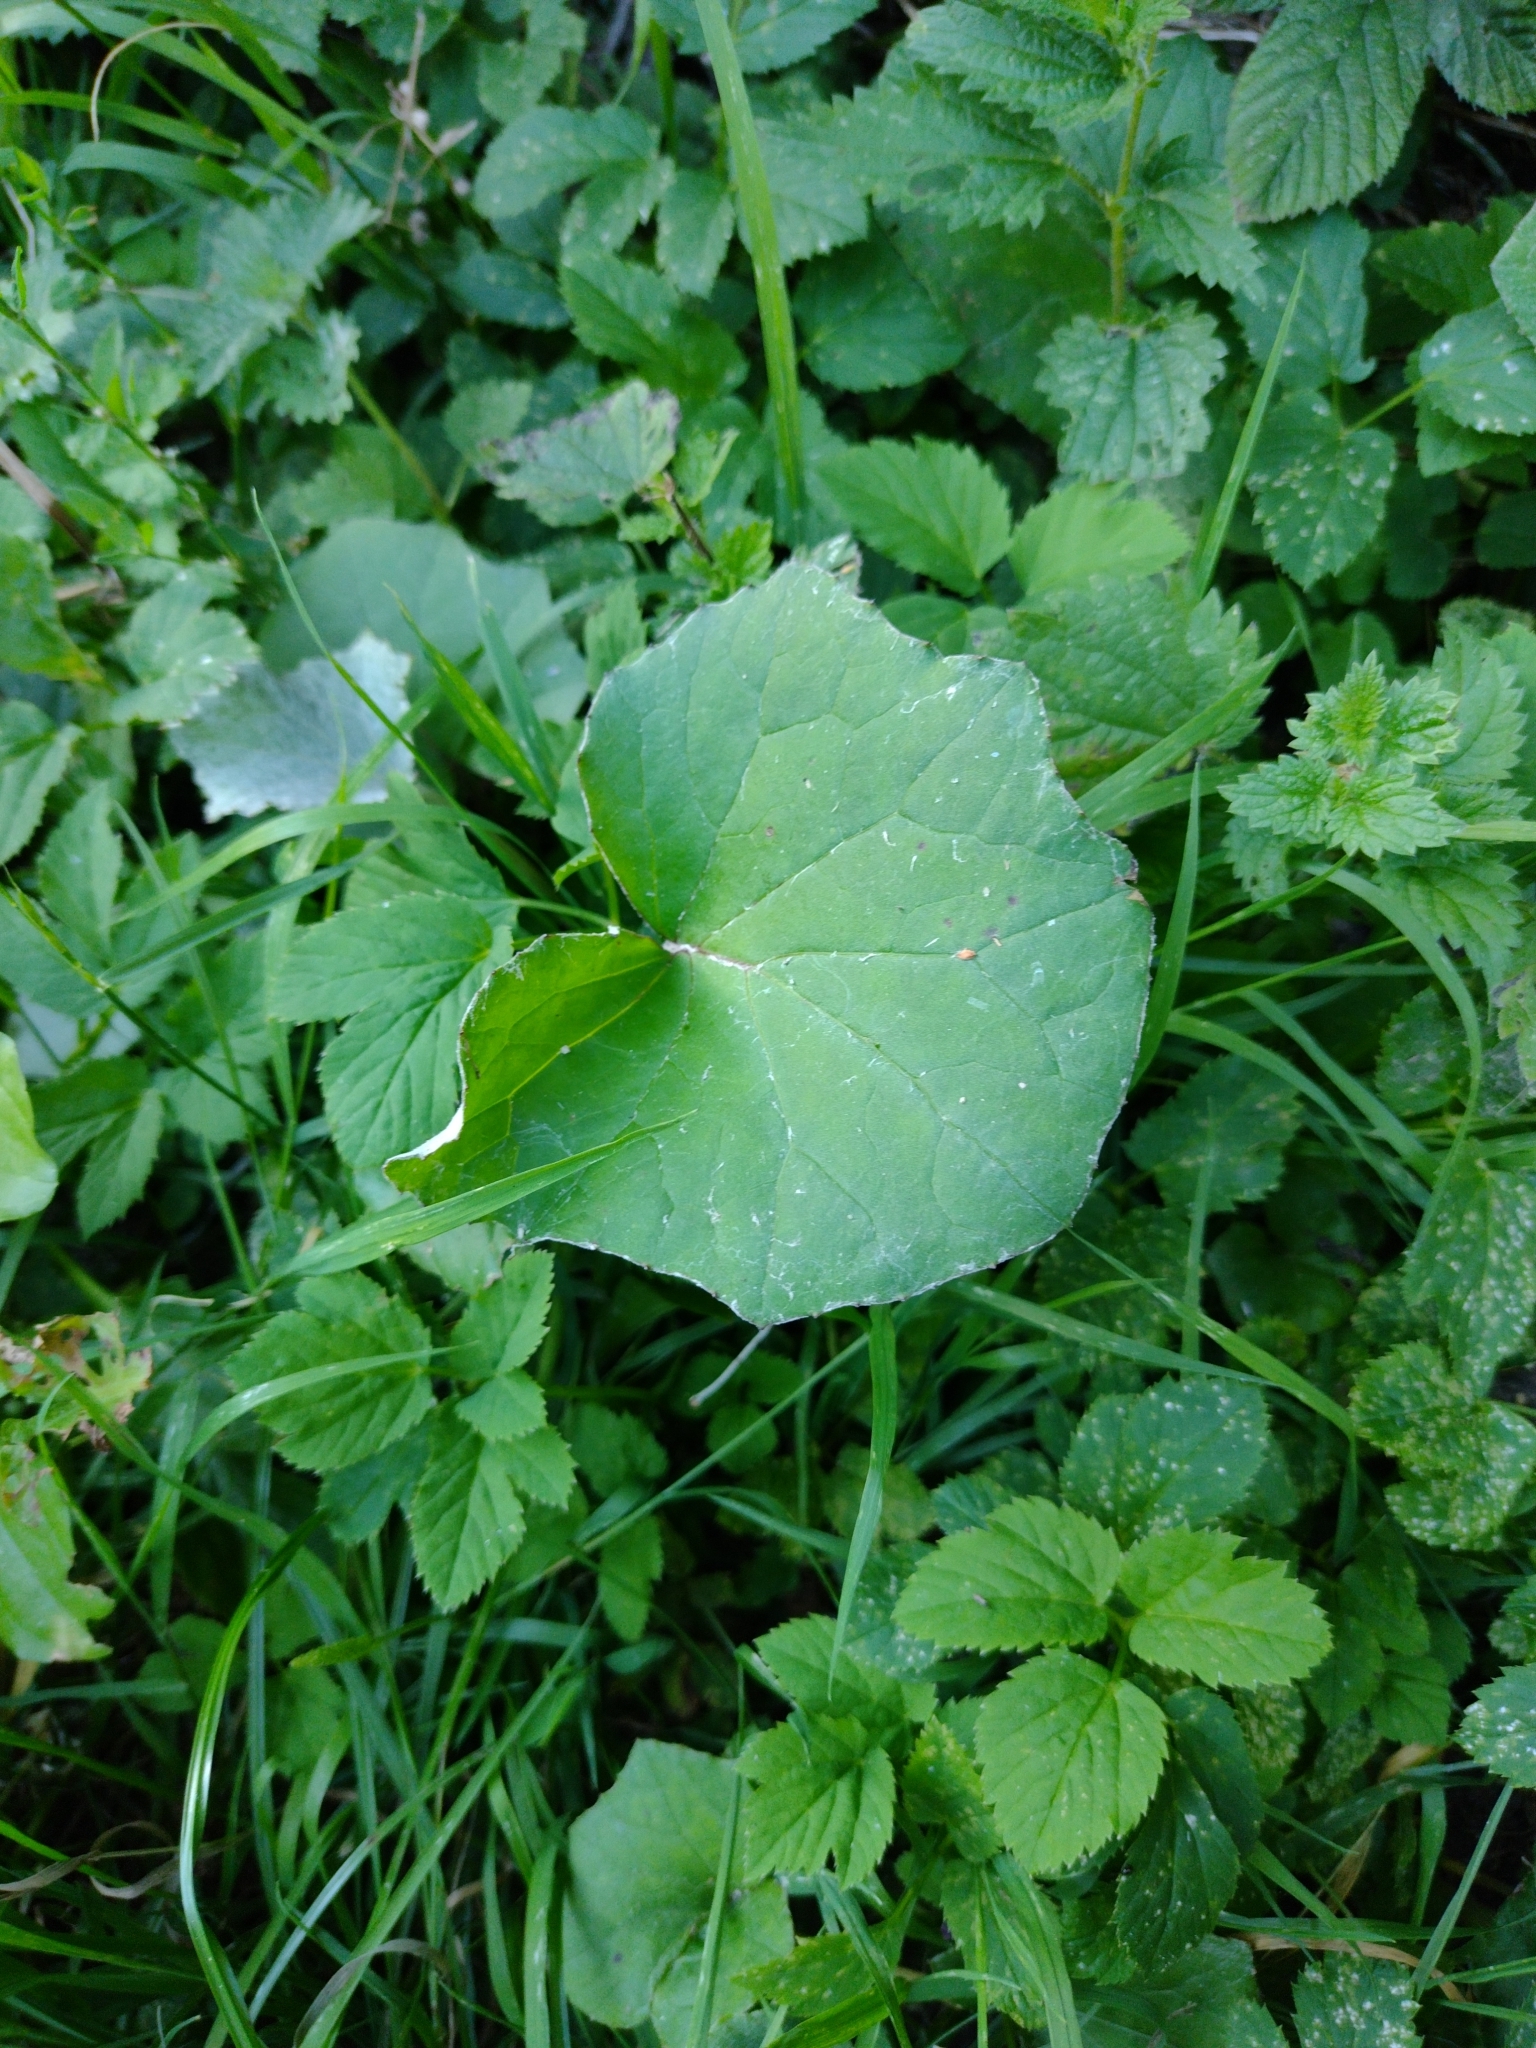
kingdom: Plantae
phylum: Tracheophyta
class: Magnoliopsida
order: Asterales
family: Asteraceae
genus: Tussilago
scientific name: Tussilago farfara
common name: Coltsfoot
